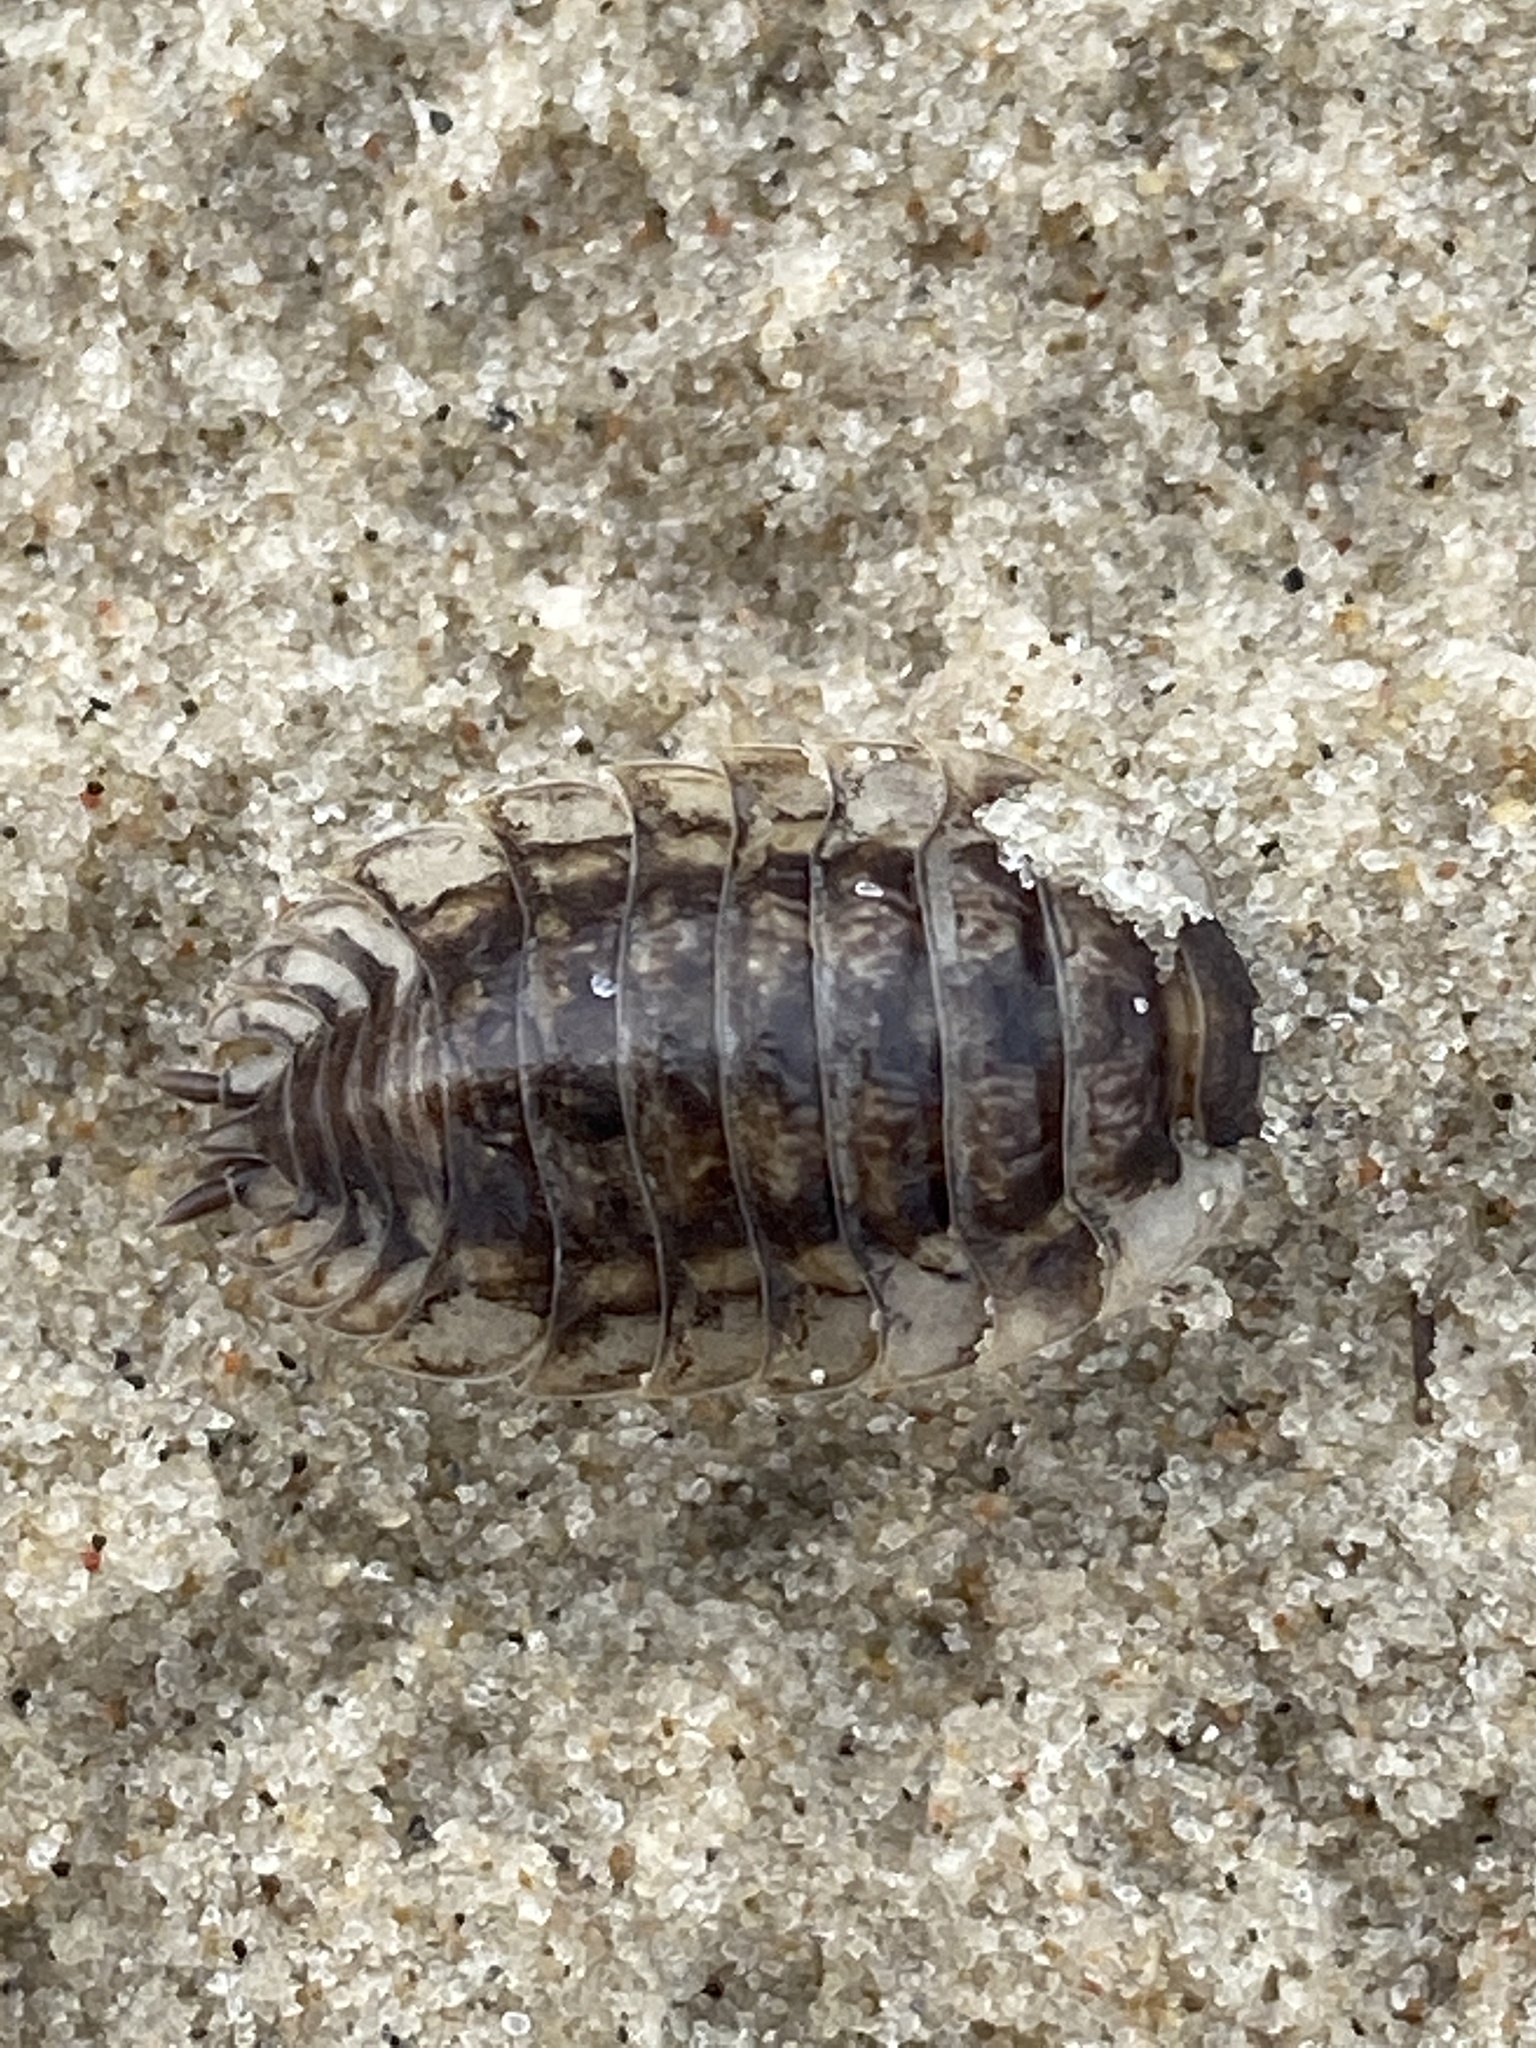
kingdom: Animalia
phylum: Arthropoda
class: Malacostraca
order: Isopoda
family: Oniscidae
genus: Oniscus
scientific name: Oniscus asellus
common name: Common shiny woodlouse
